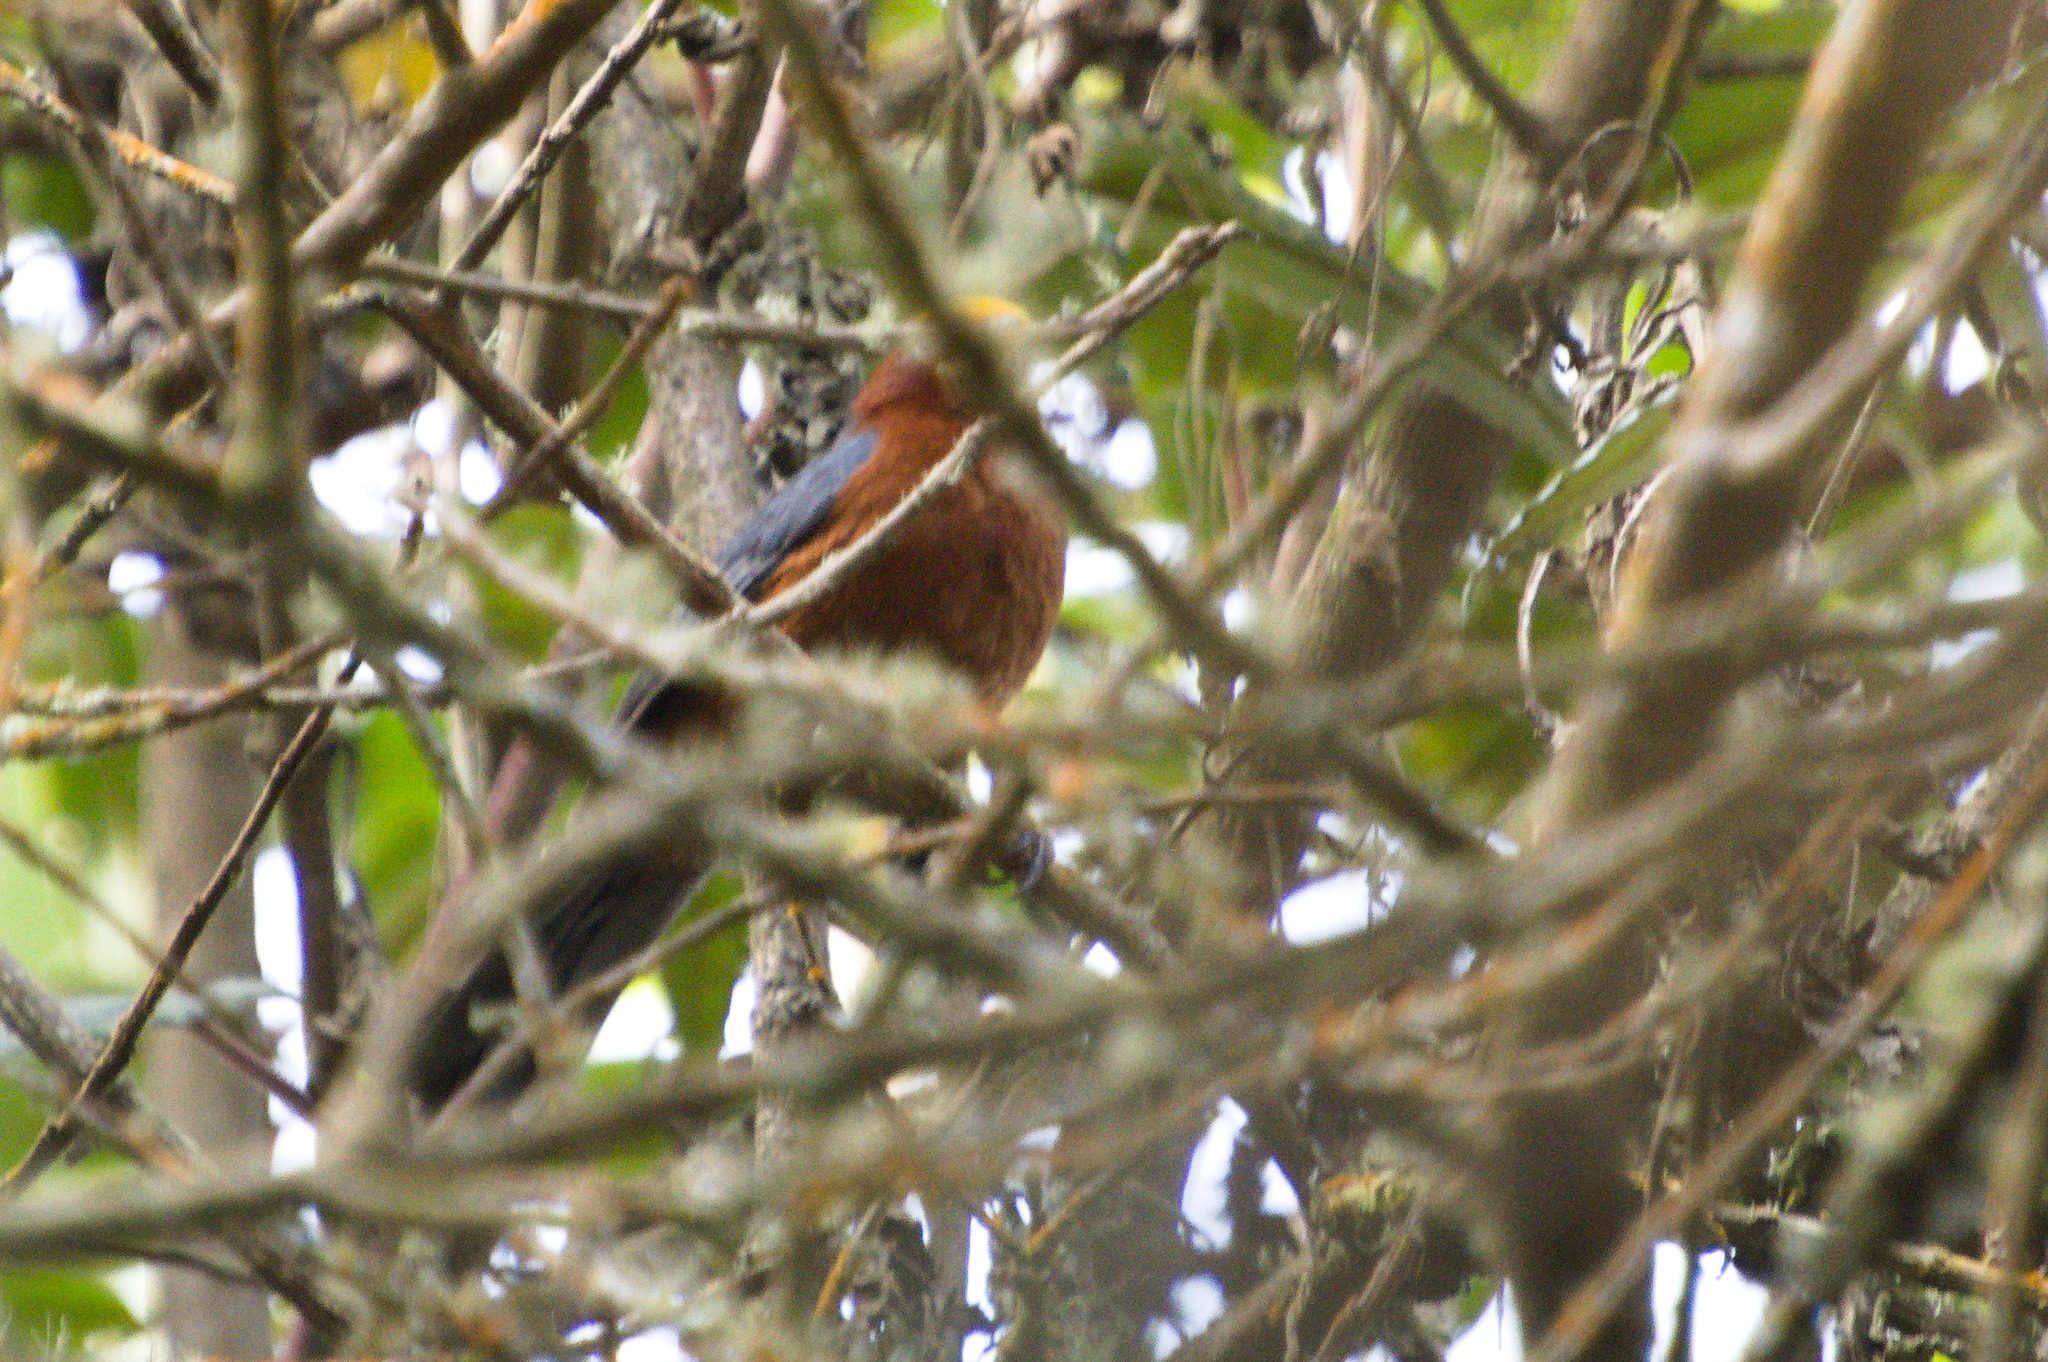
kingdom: Animalia
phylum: Chordata
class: Aves
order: Passeriformes
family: Thraupidae
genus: Catamblyrhynchus
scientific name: Catamblyrhynchus diadema
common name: Plushcap
